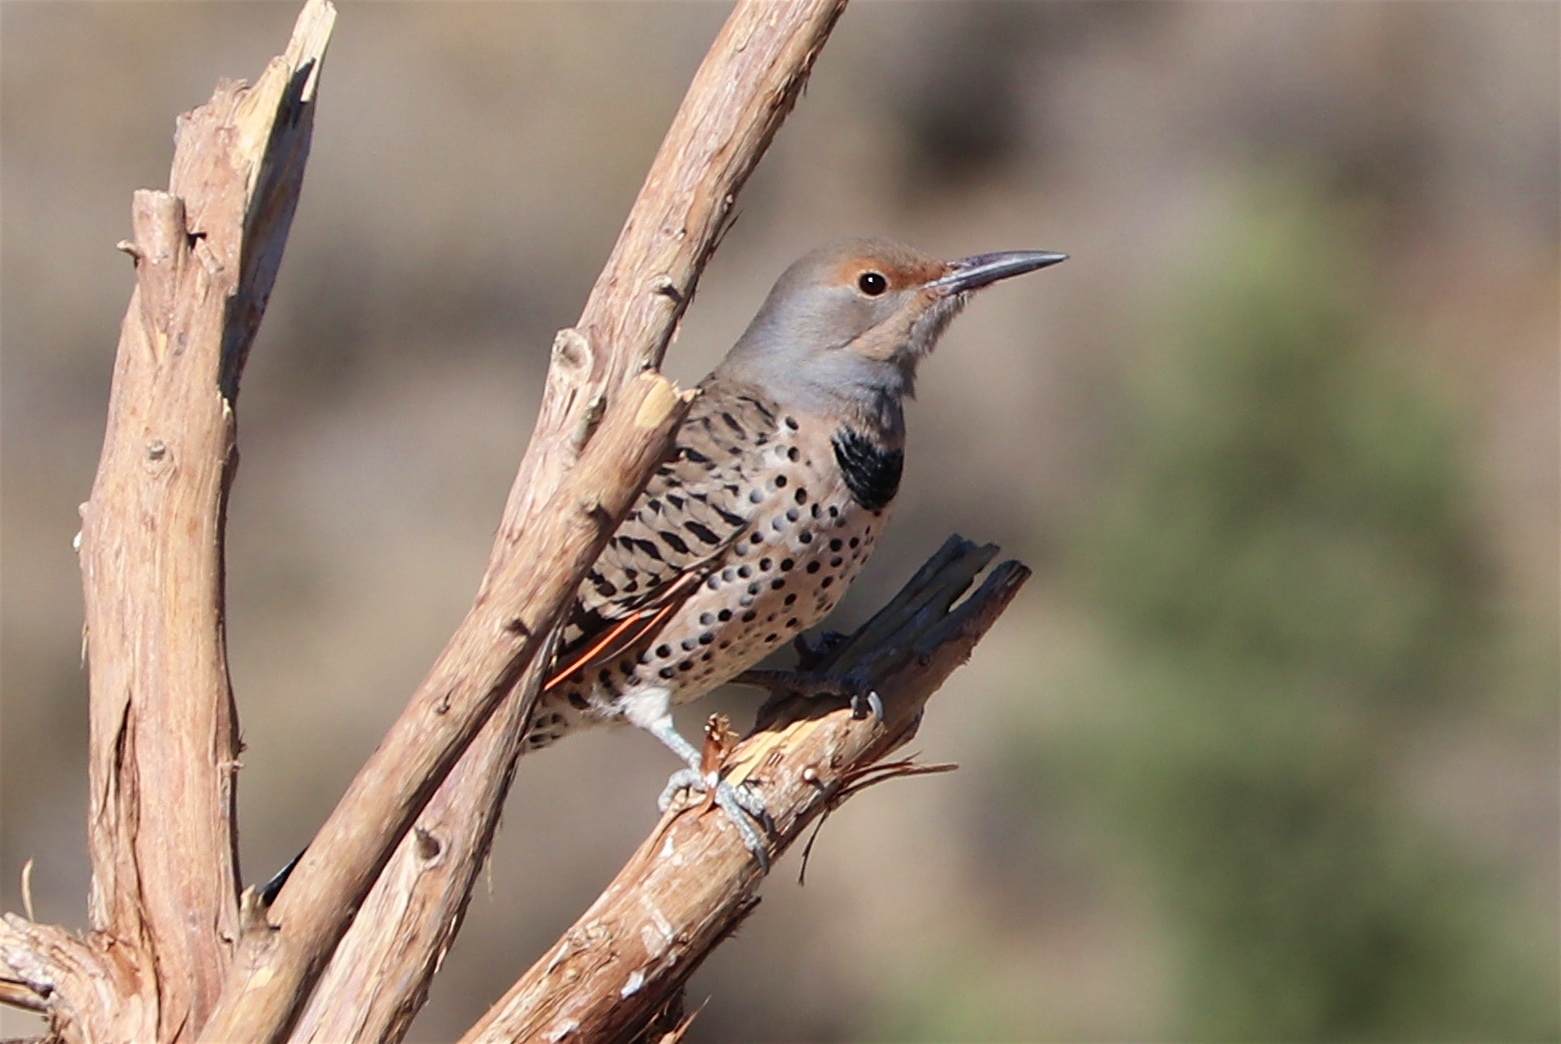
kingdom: Animalia
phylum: Chordata
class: Aves
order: Piciformes
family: Picidae
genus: Colaptes
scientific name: Colaptes auratus
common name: Northern flicker
